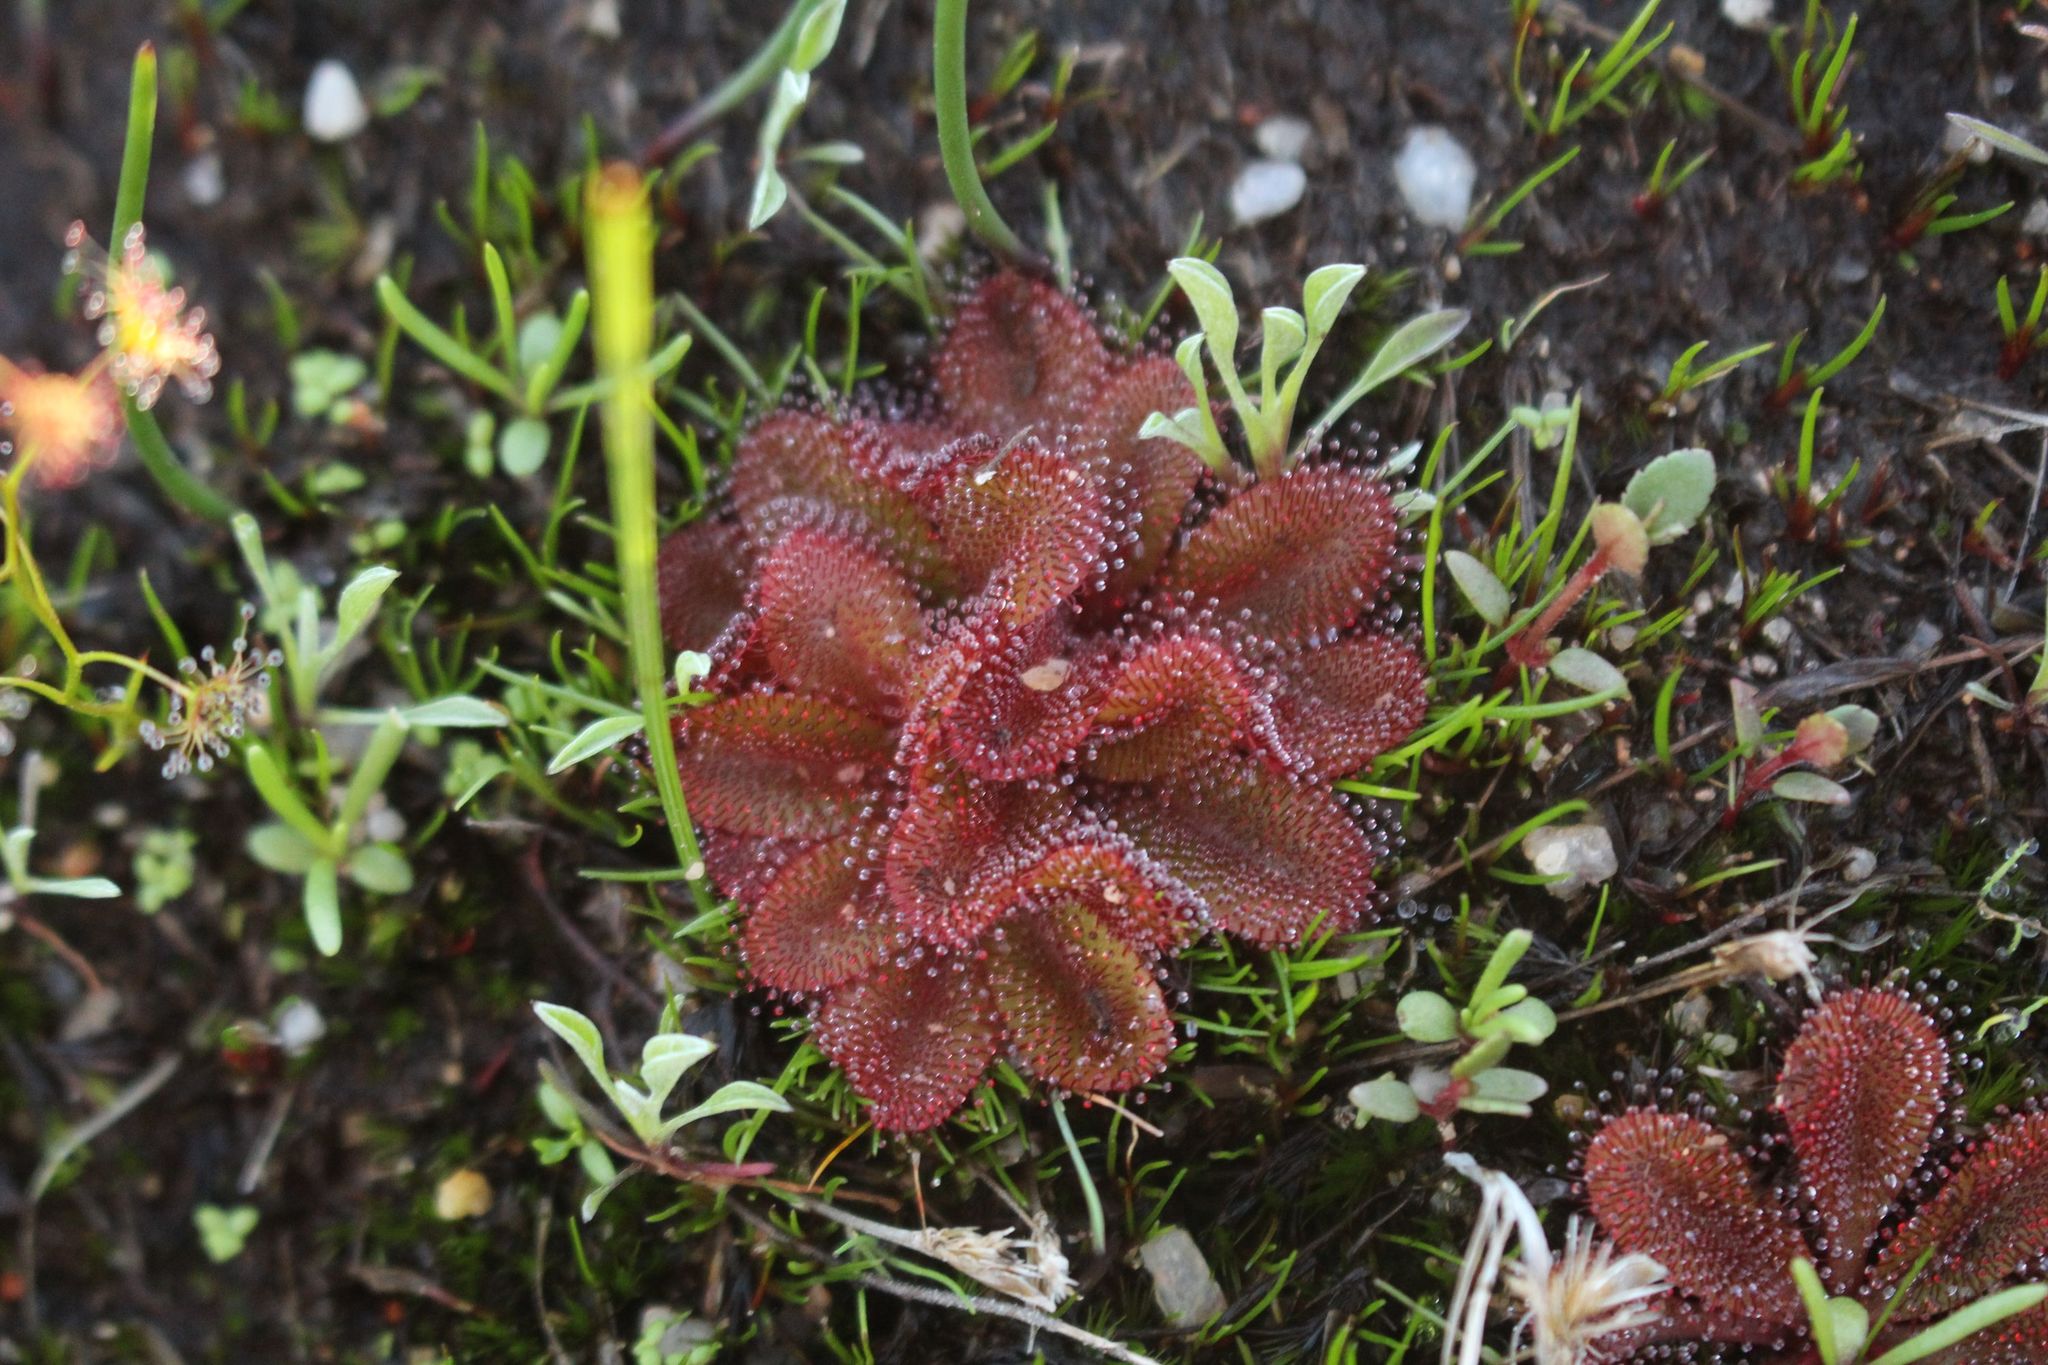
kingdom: Plantae
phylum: Tracheophyta
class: Magnoliopsida
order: Caryophyllales
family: Droseraceae
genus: Drosera
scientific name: Drosera rosulata
